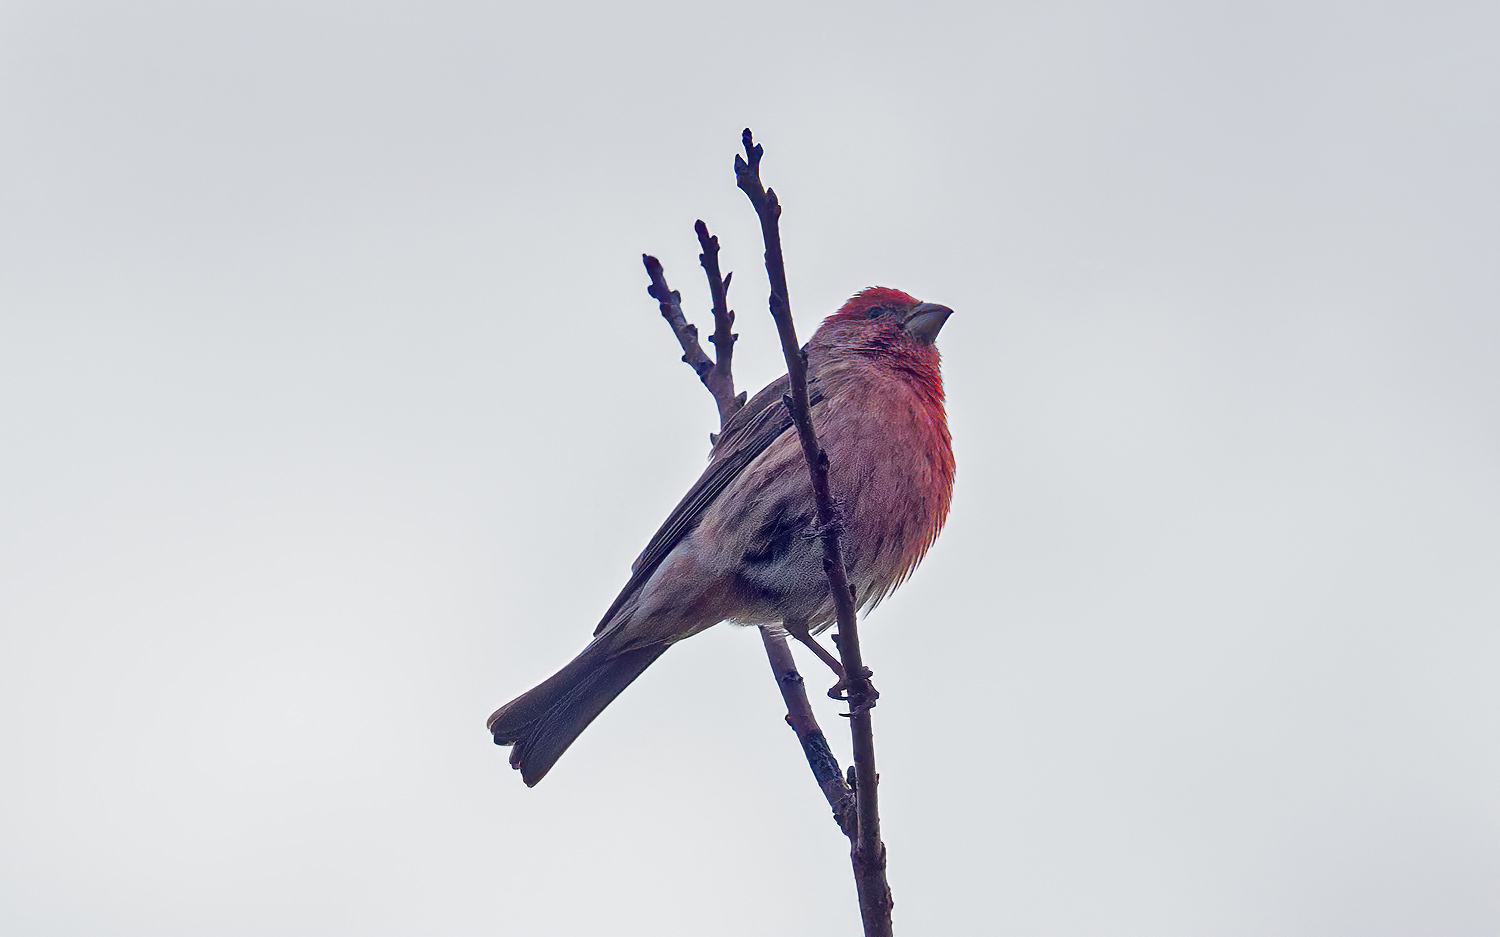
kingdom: Animalia
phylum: Chordata
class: Aves
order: Passeriformes
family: Fringillidae
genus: Haemorhous
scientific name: Haemorhous mexicanus
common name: House finch
